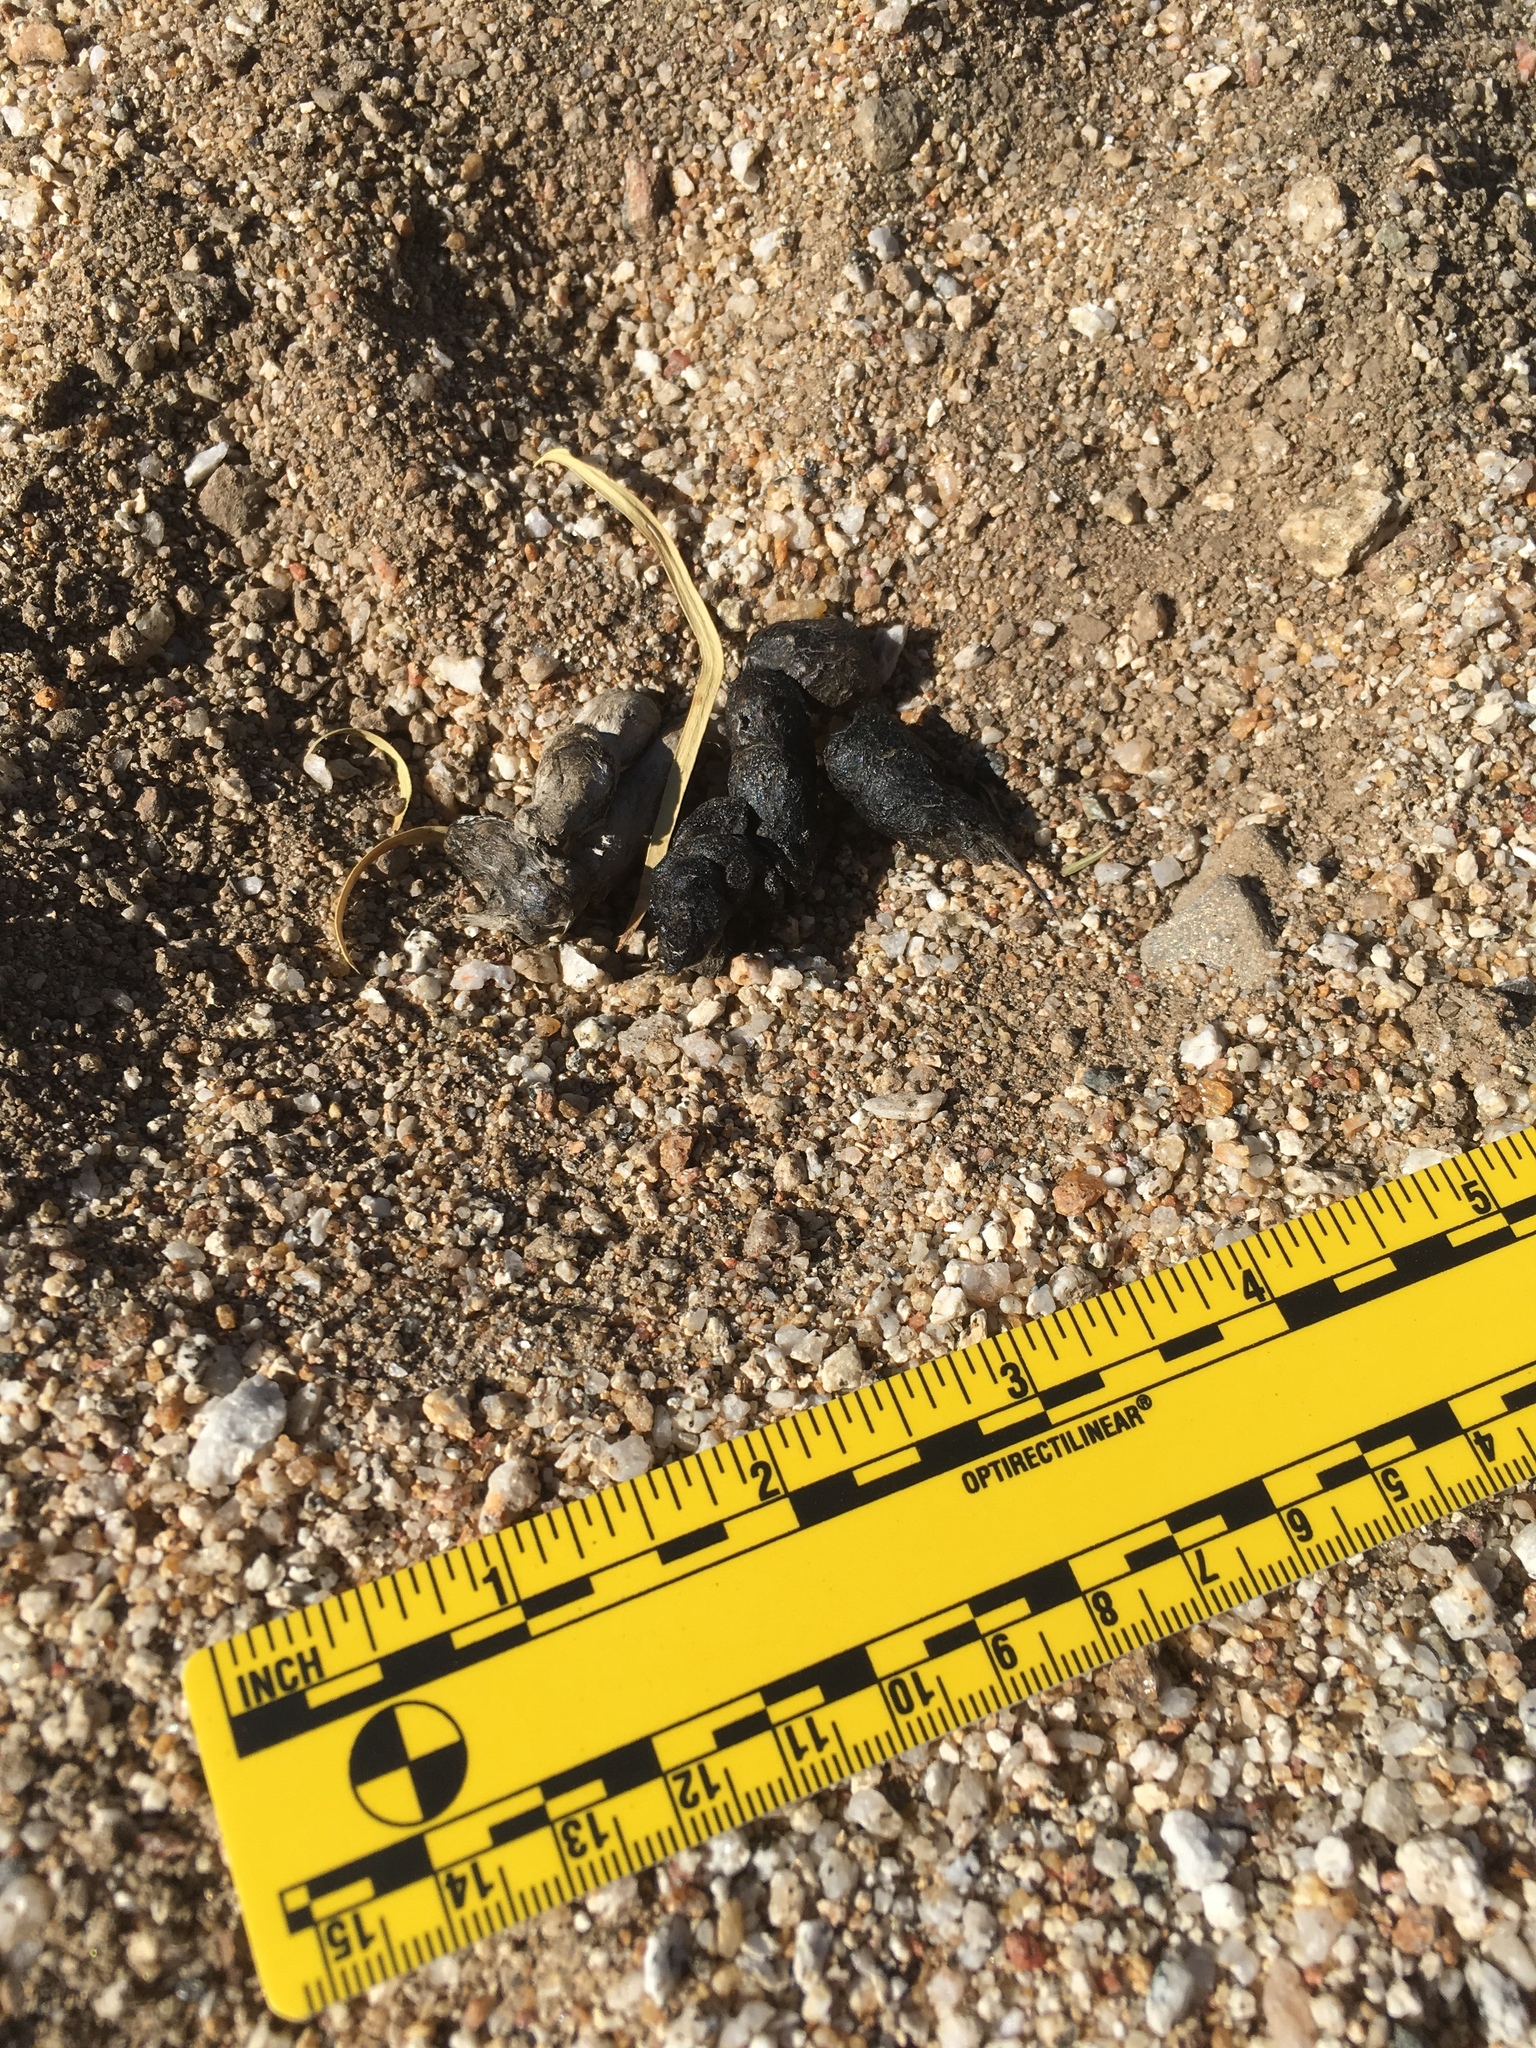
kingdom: Animalia
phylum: Chordata
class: Mammalia
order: Carnivora
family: Canidae
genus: Urocyon
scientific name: Urocyon cinereoargenteus
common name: Gray fox
